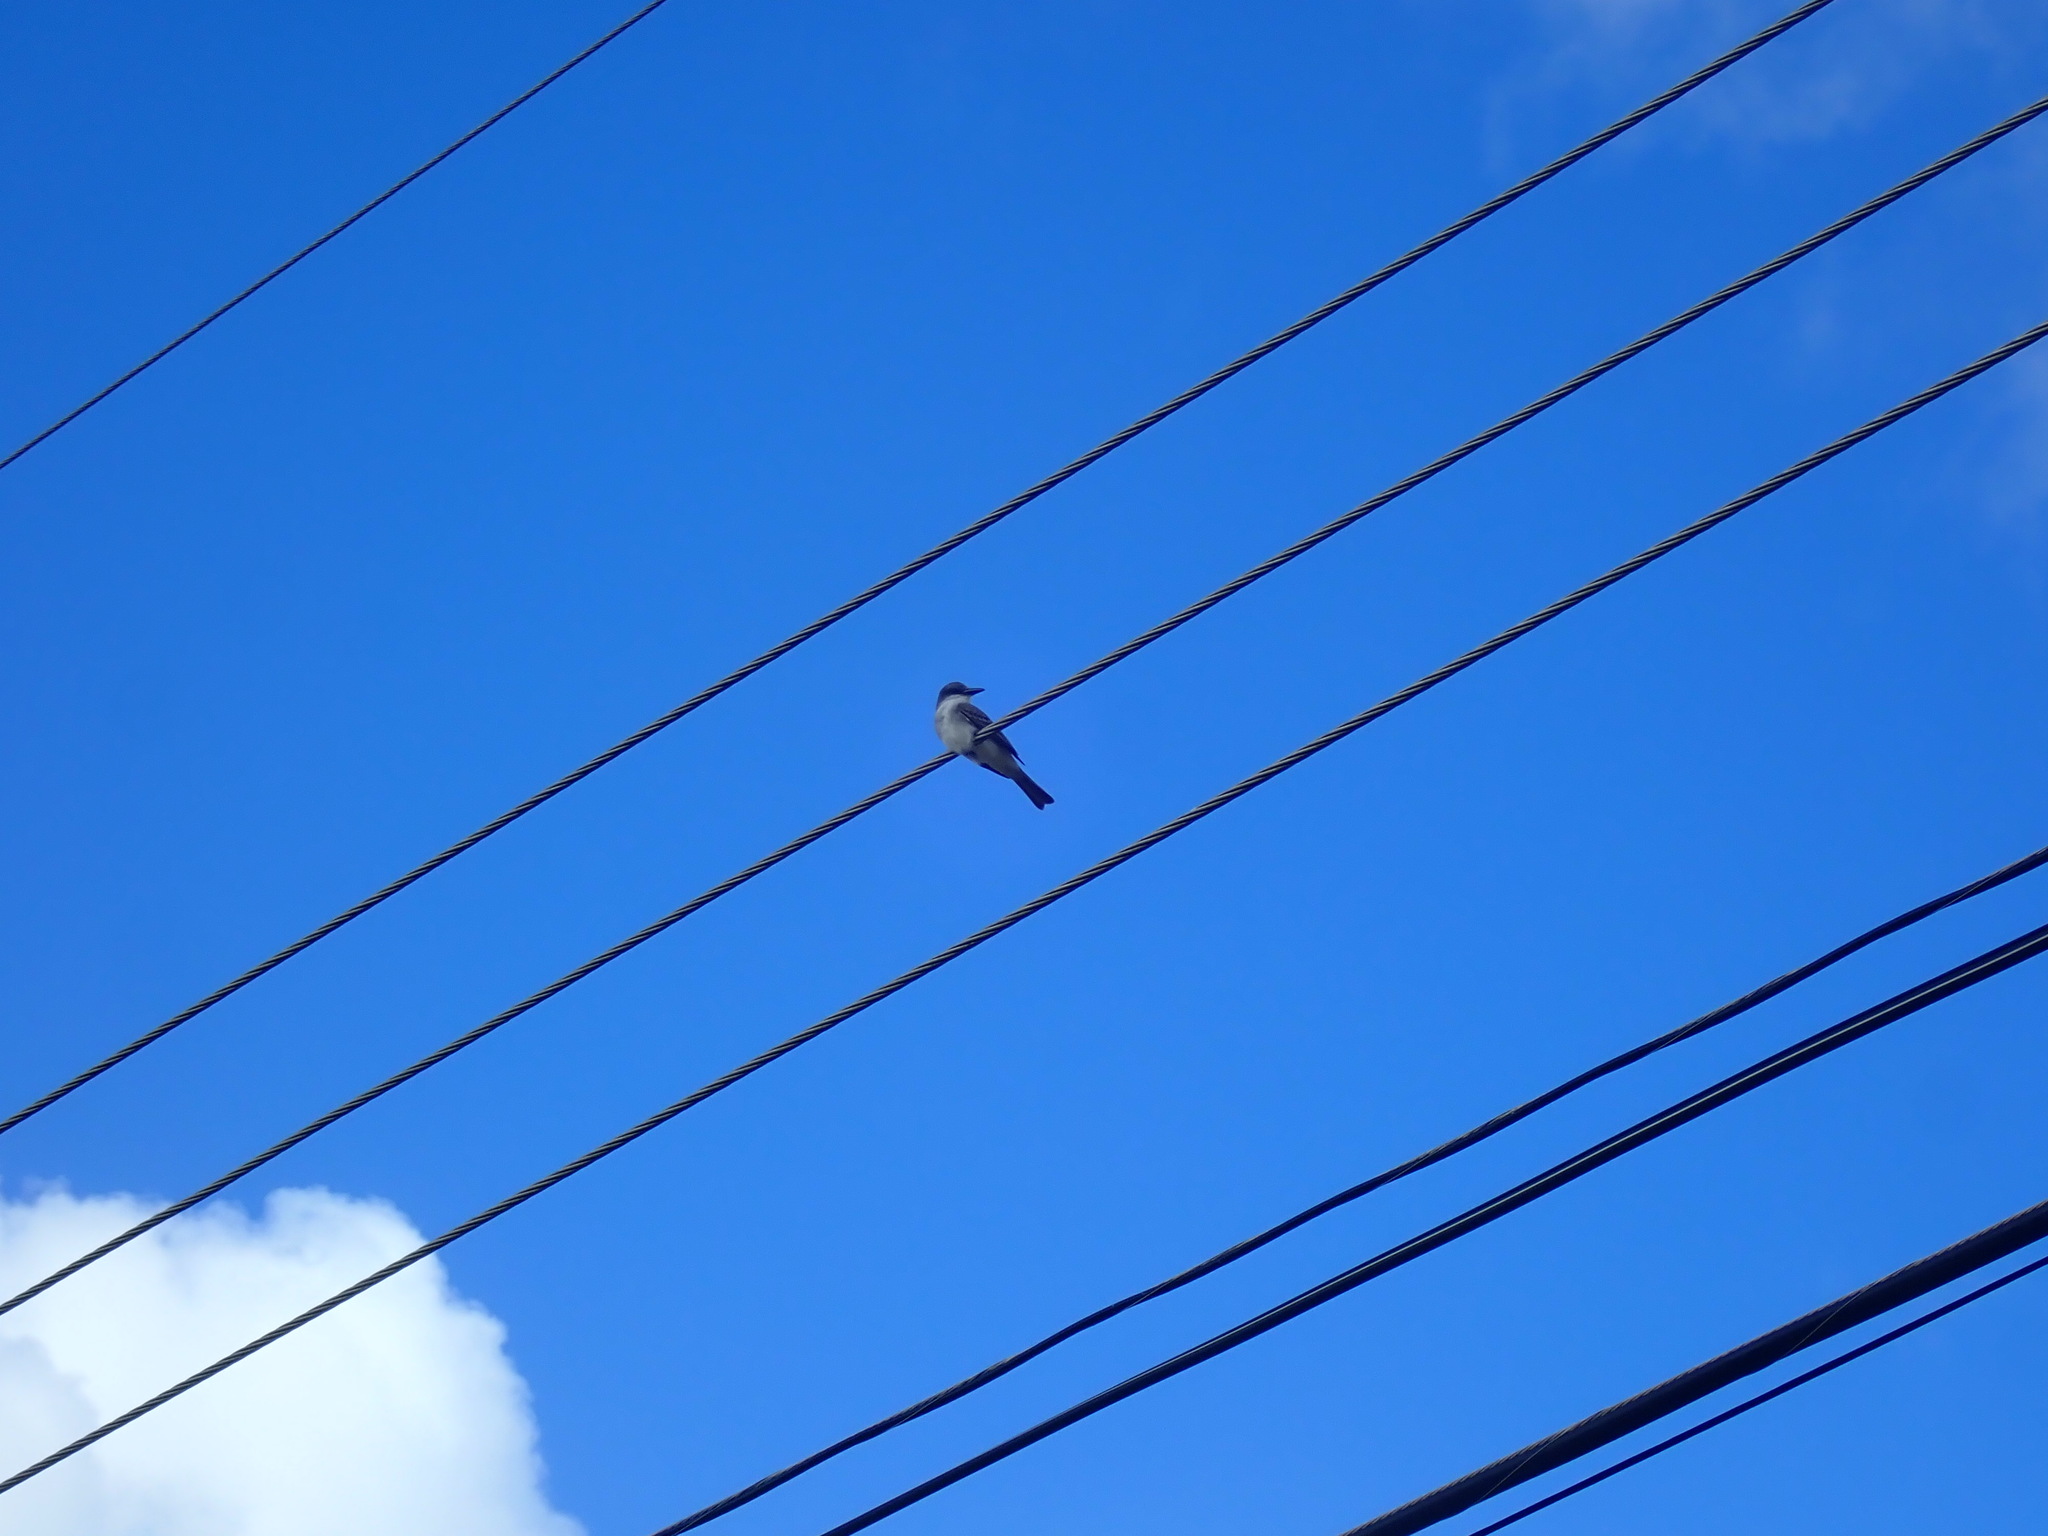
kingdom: Animalia
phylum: Chordata
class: Aves
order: Passeriformes
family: Tyrannidae
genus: Tyrannus
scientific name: Tyrannus dominicensis
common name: Gray kingbird
